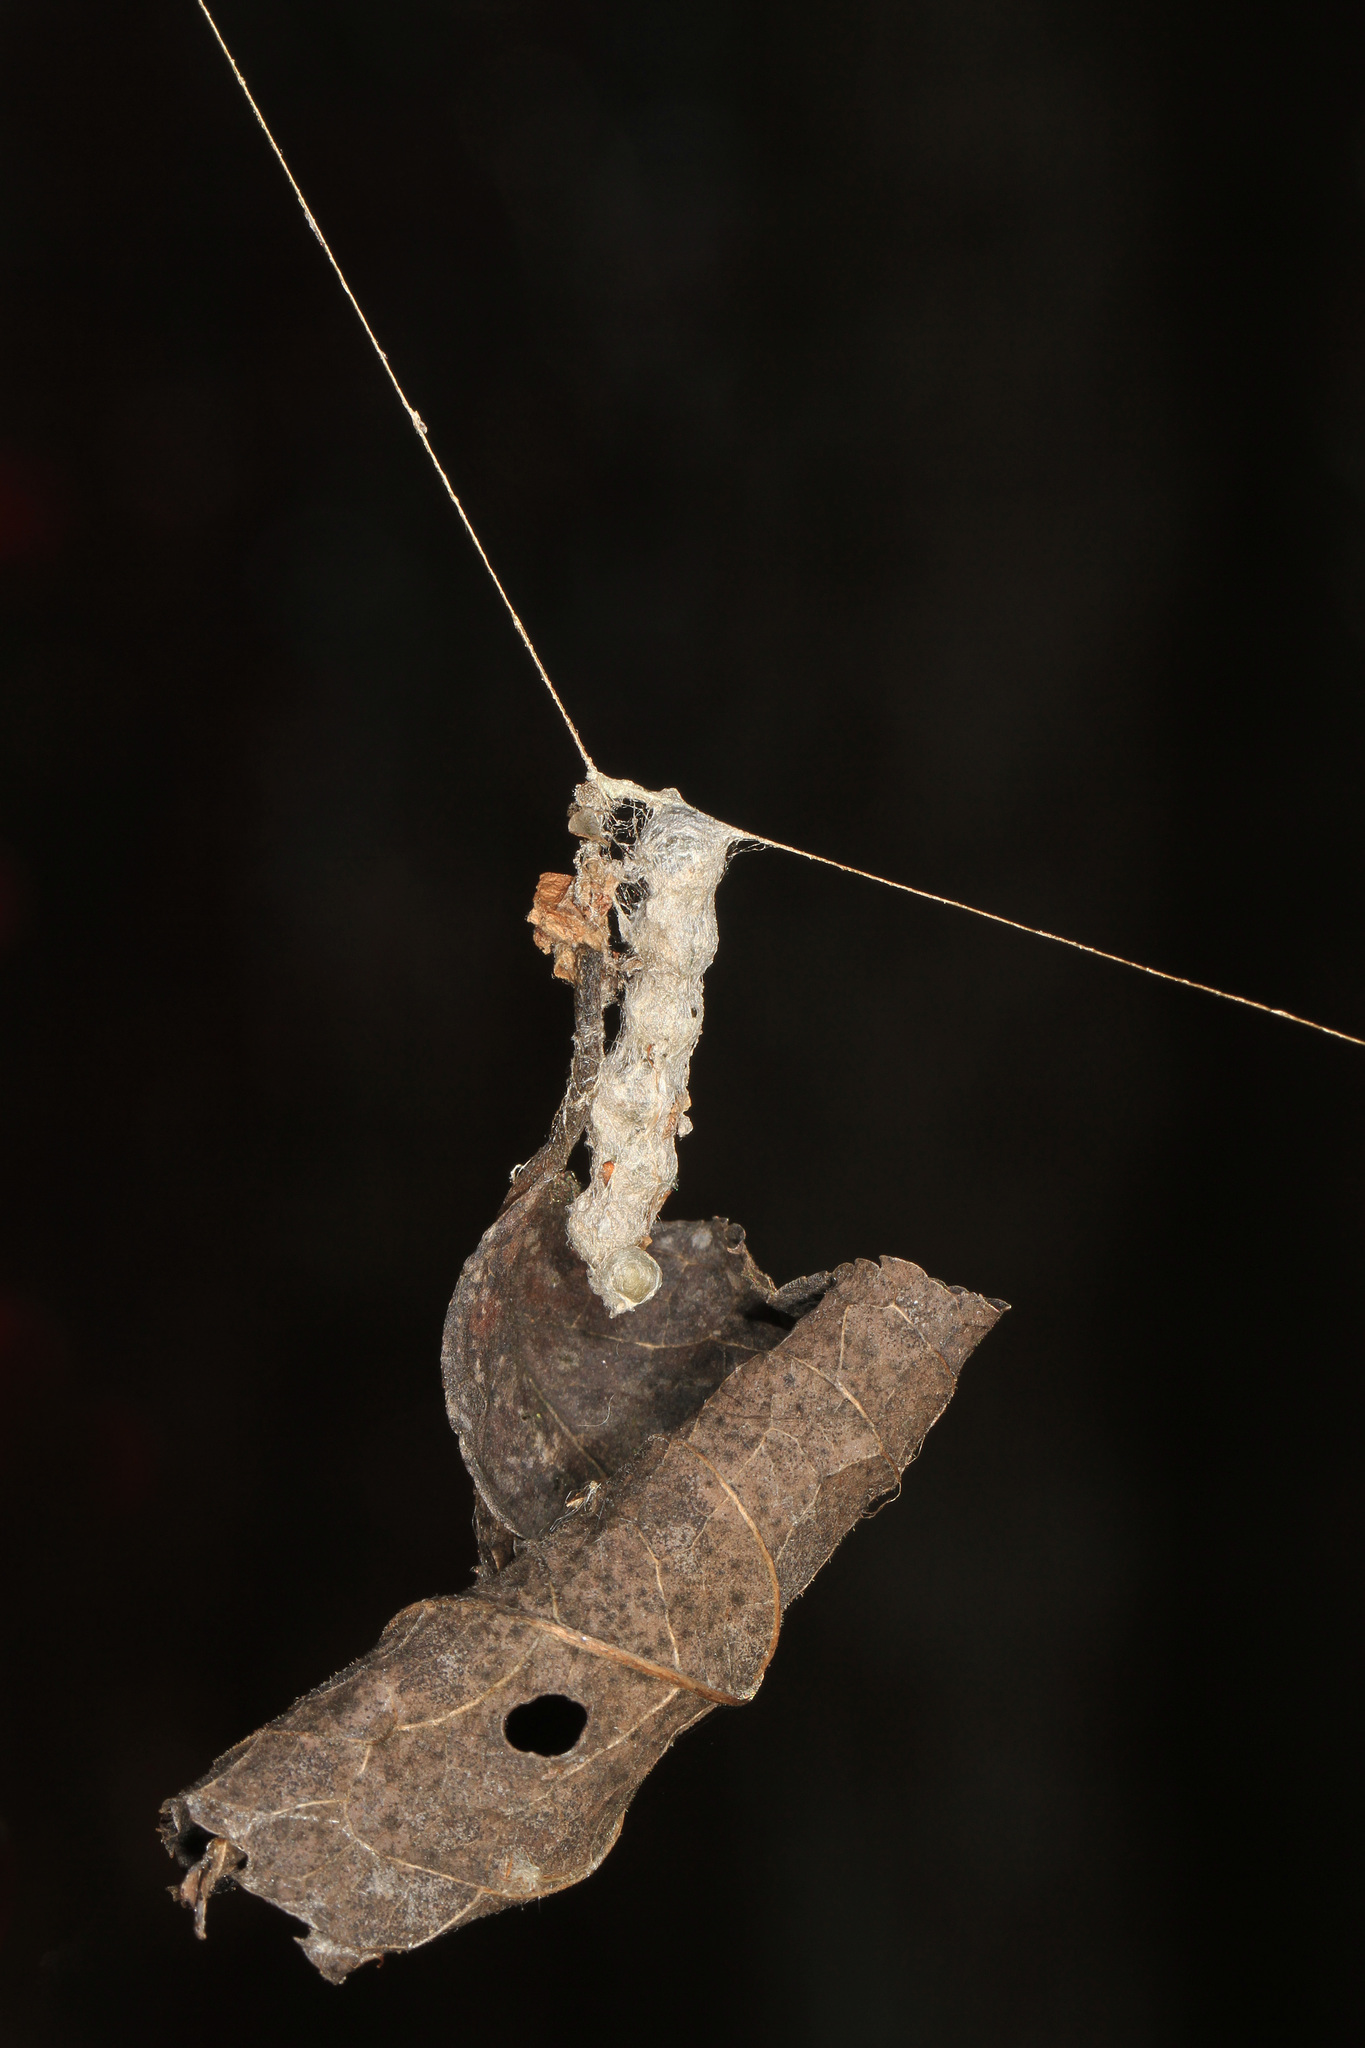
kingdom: Animalia
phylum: Arthropoda
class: Arachnida
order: Araneae
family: Araneidae
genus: Mecynogea
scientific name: Mecynogea lemniscata
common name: Orb weavers
